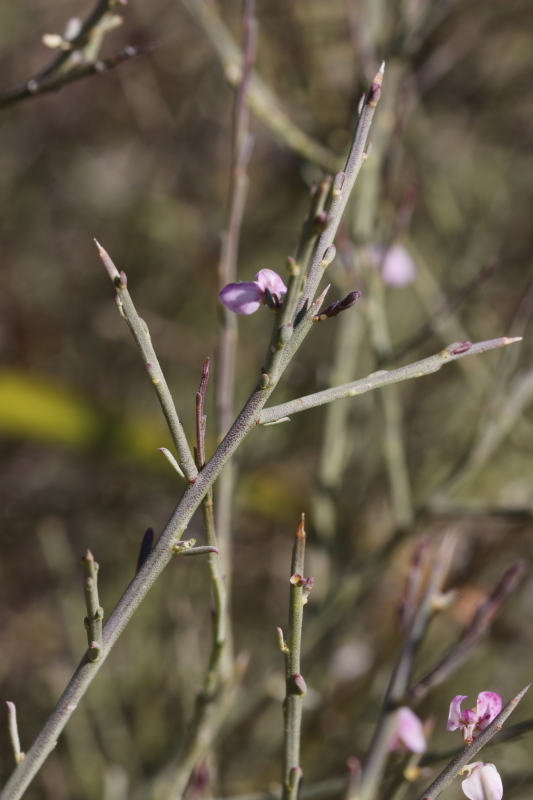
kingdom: Plantae
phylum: Tracheophyta
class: Magnoliopsida
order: Fabales
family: Polygalaceae
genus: Muraltia
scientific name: Muraltia spinosa
